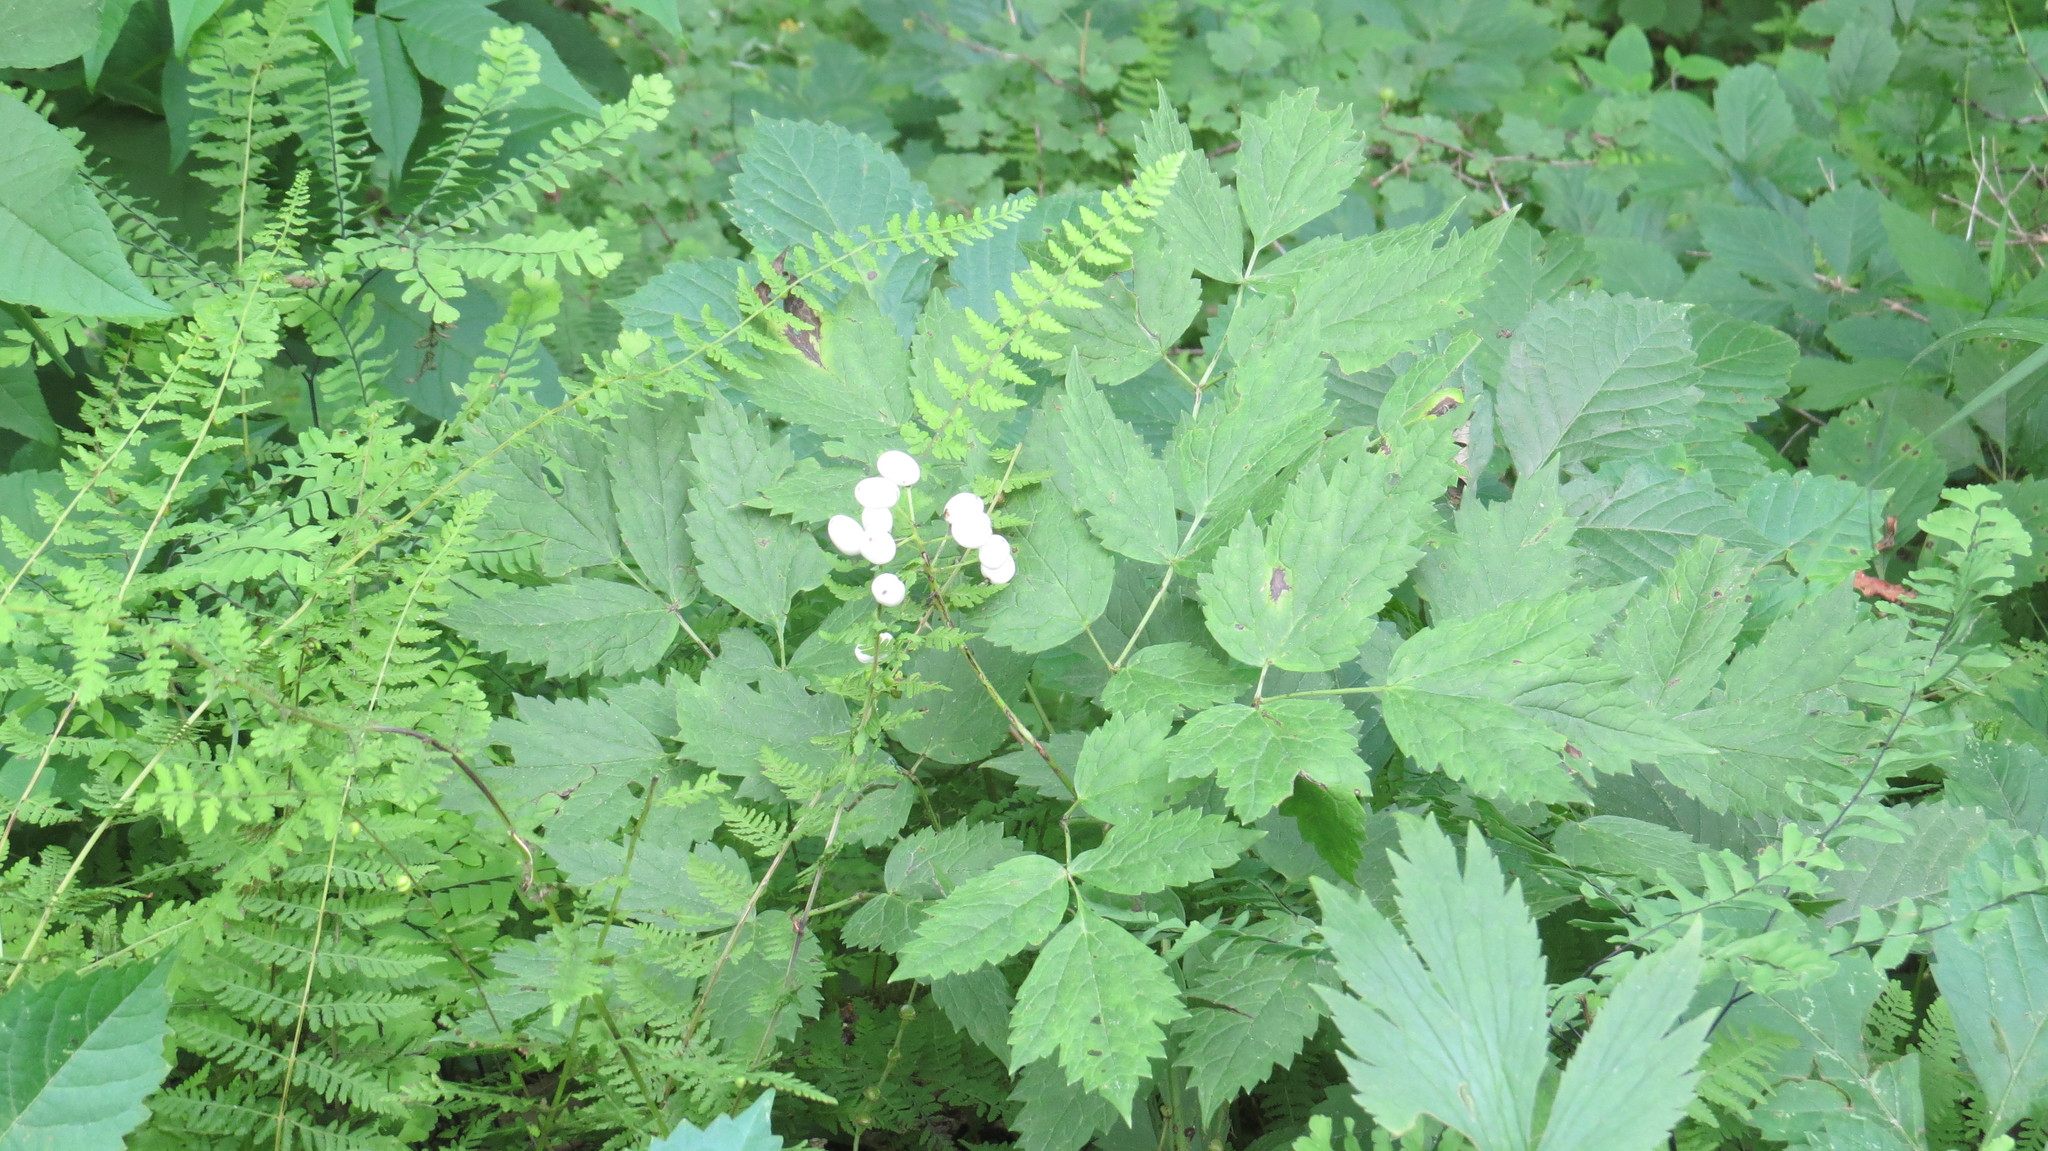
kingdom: Plantae
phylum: Tracheophyta
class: Magnoliopsida
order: Ranunculales
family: Ranunculaceae
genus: Actaea
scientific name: Actaea rubra
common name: Red baneberry
